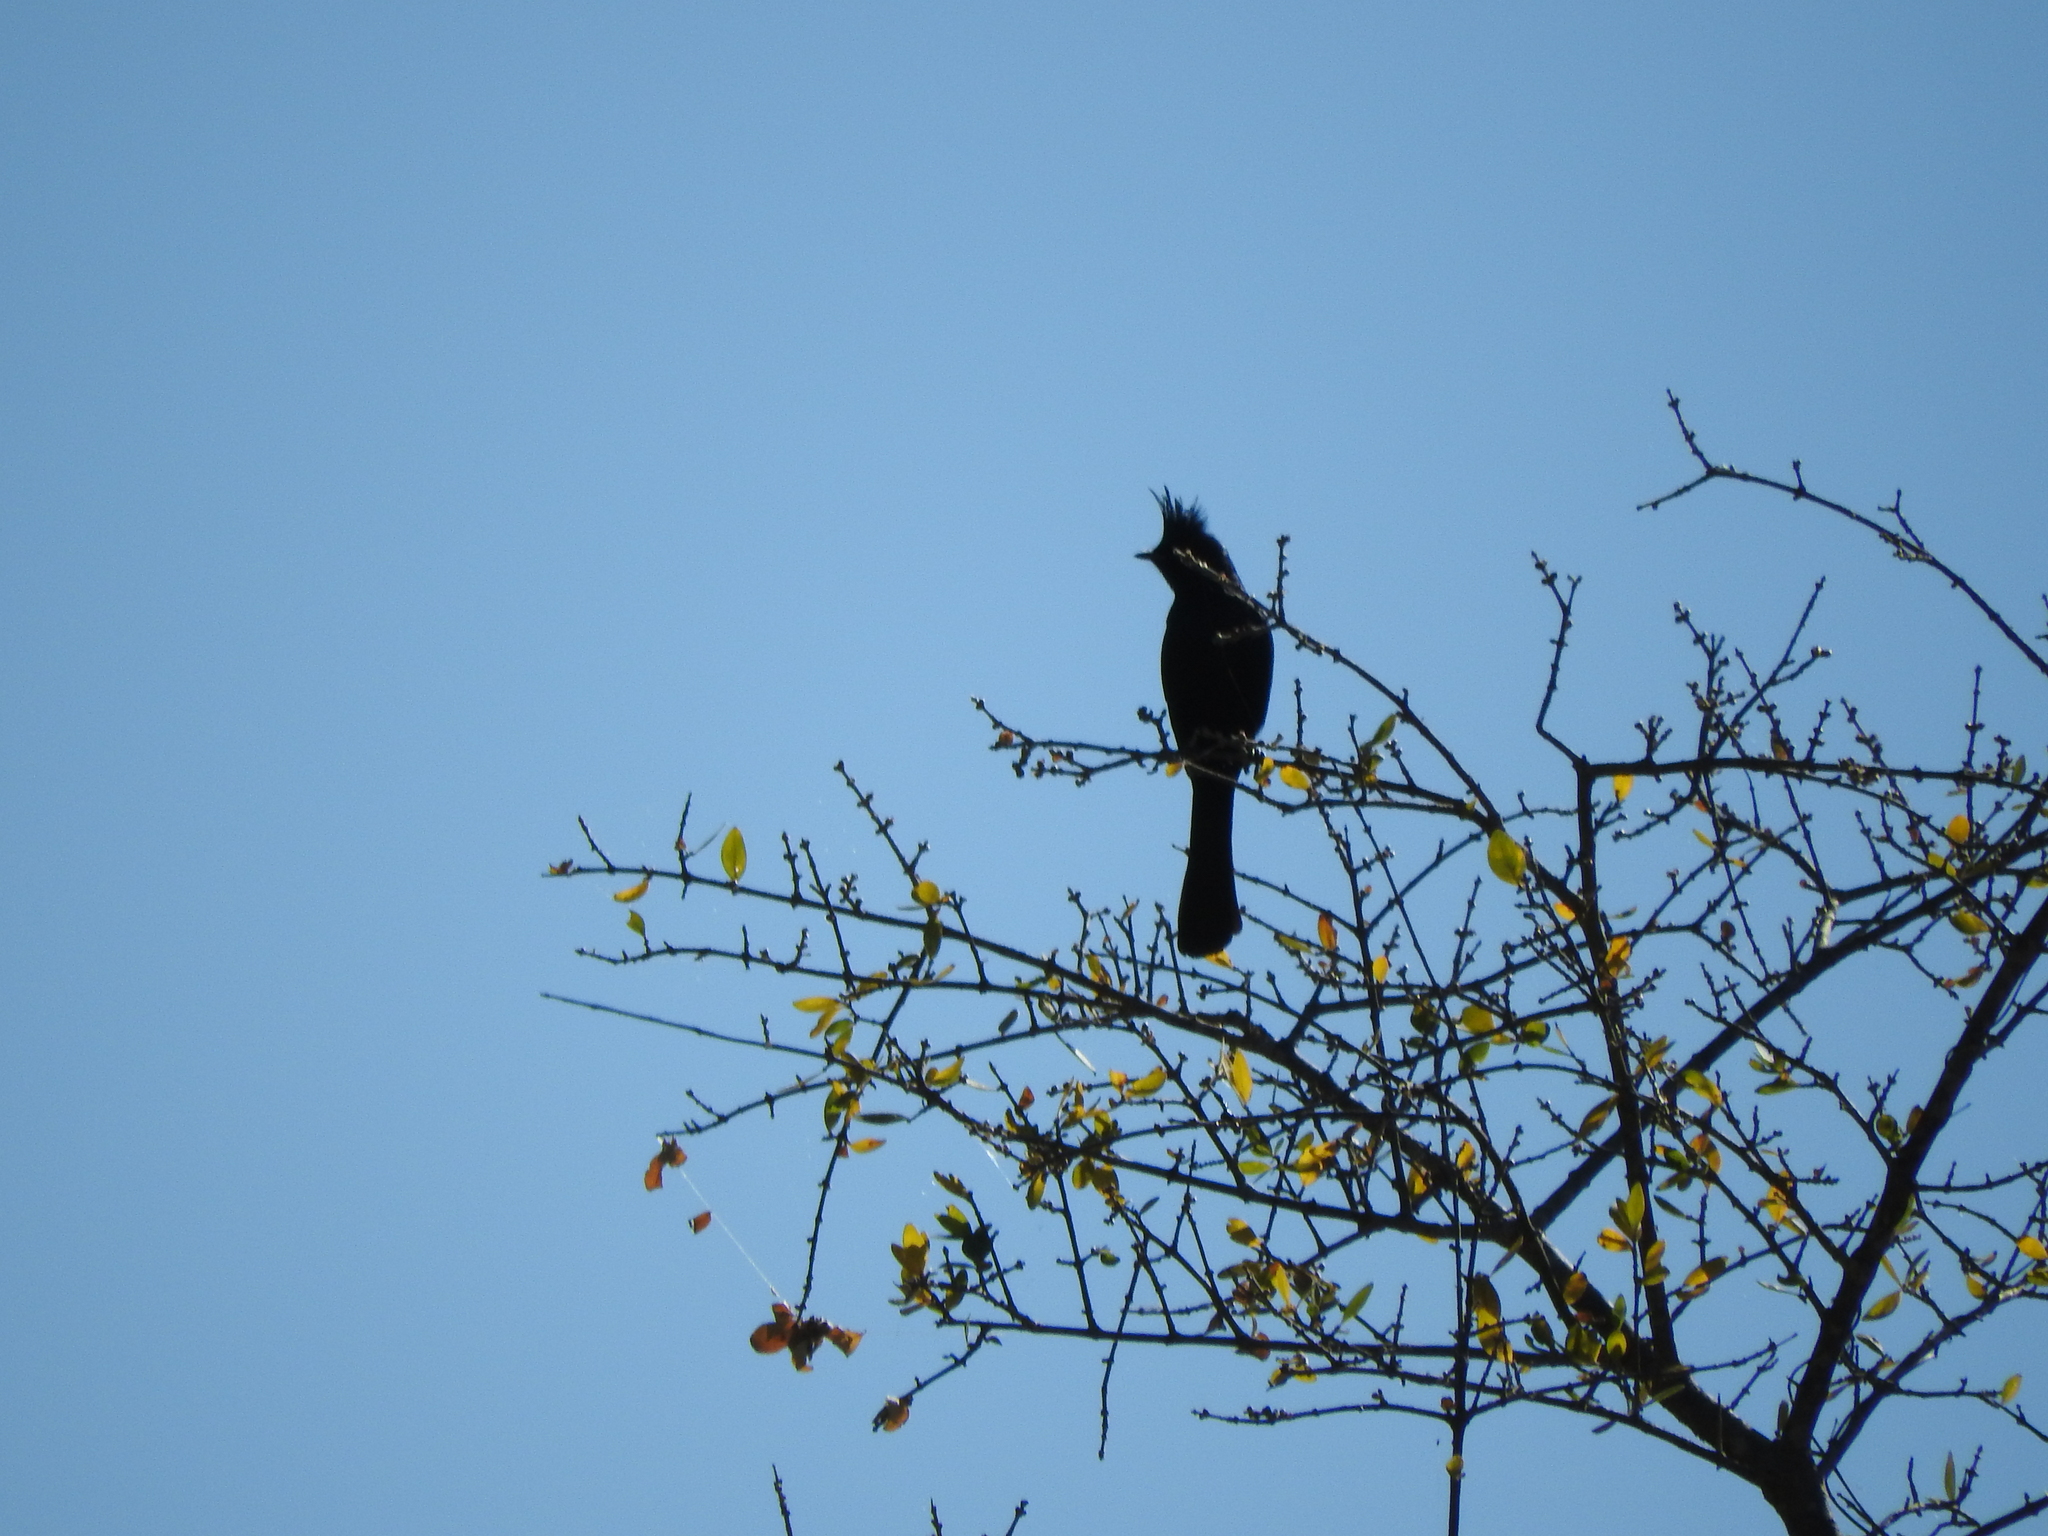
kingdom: Animalia
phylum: Chordata
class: Aves
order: Passeriformes
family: Ptilogonatidae
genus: Phainopepla
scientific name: Phainopepla nitens
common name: Phainopepla
